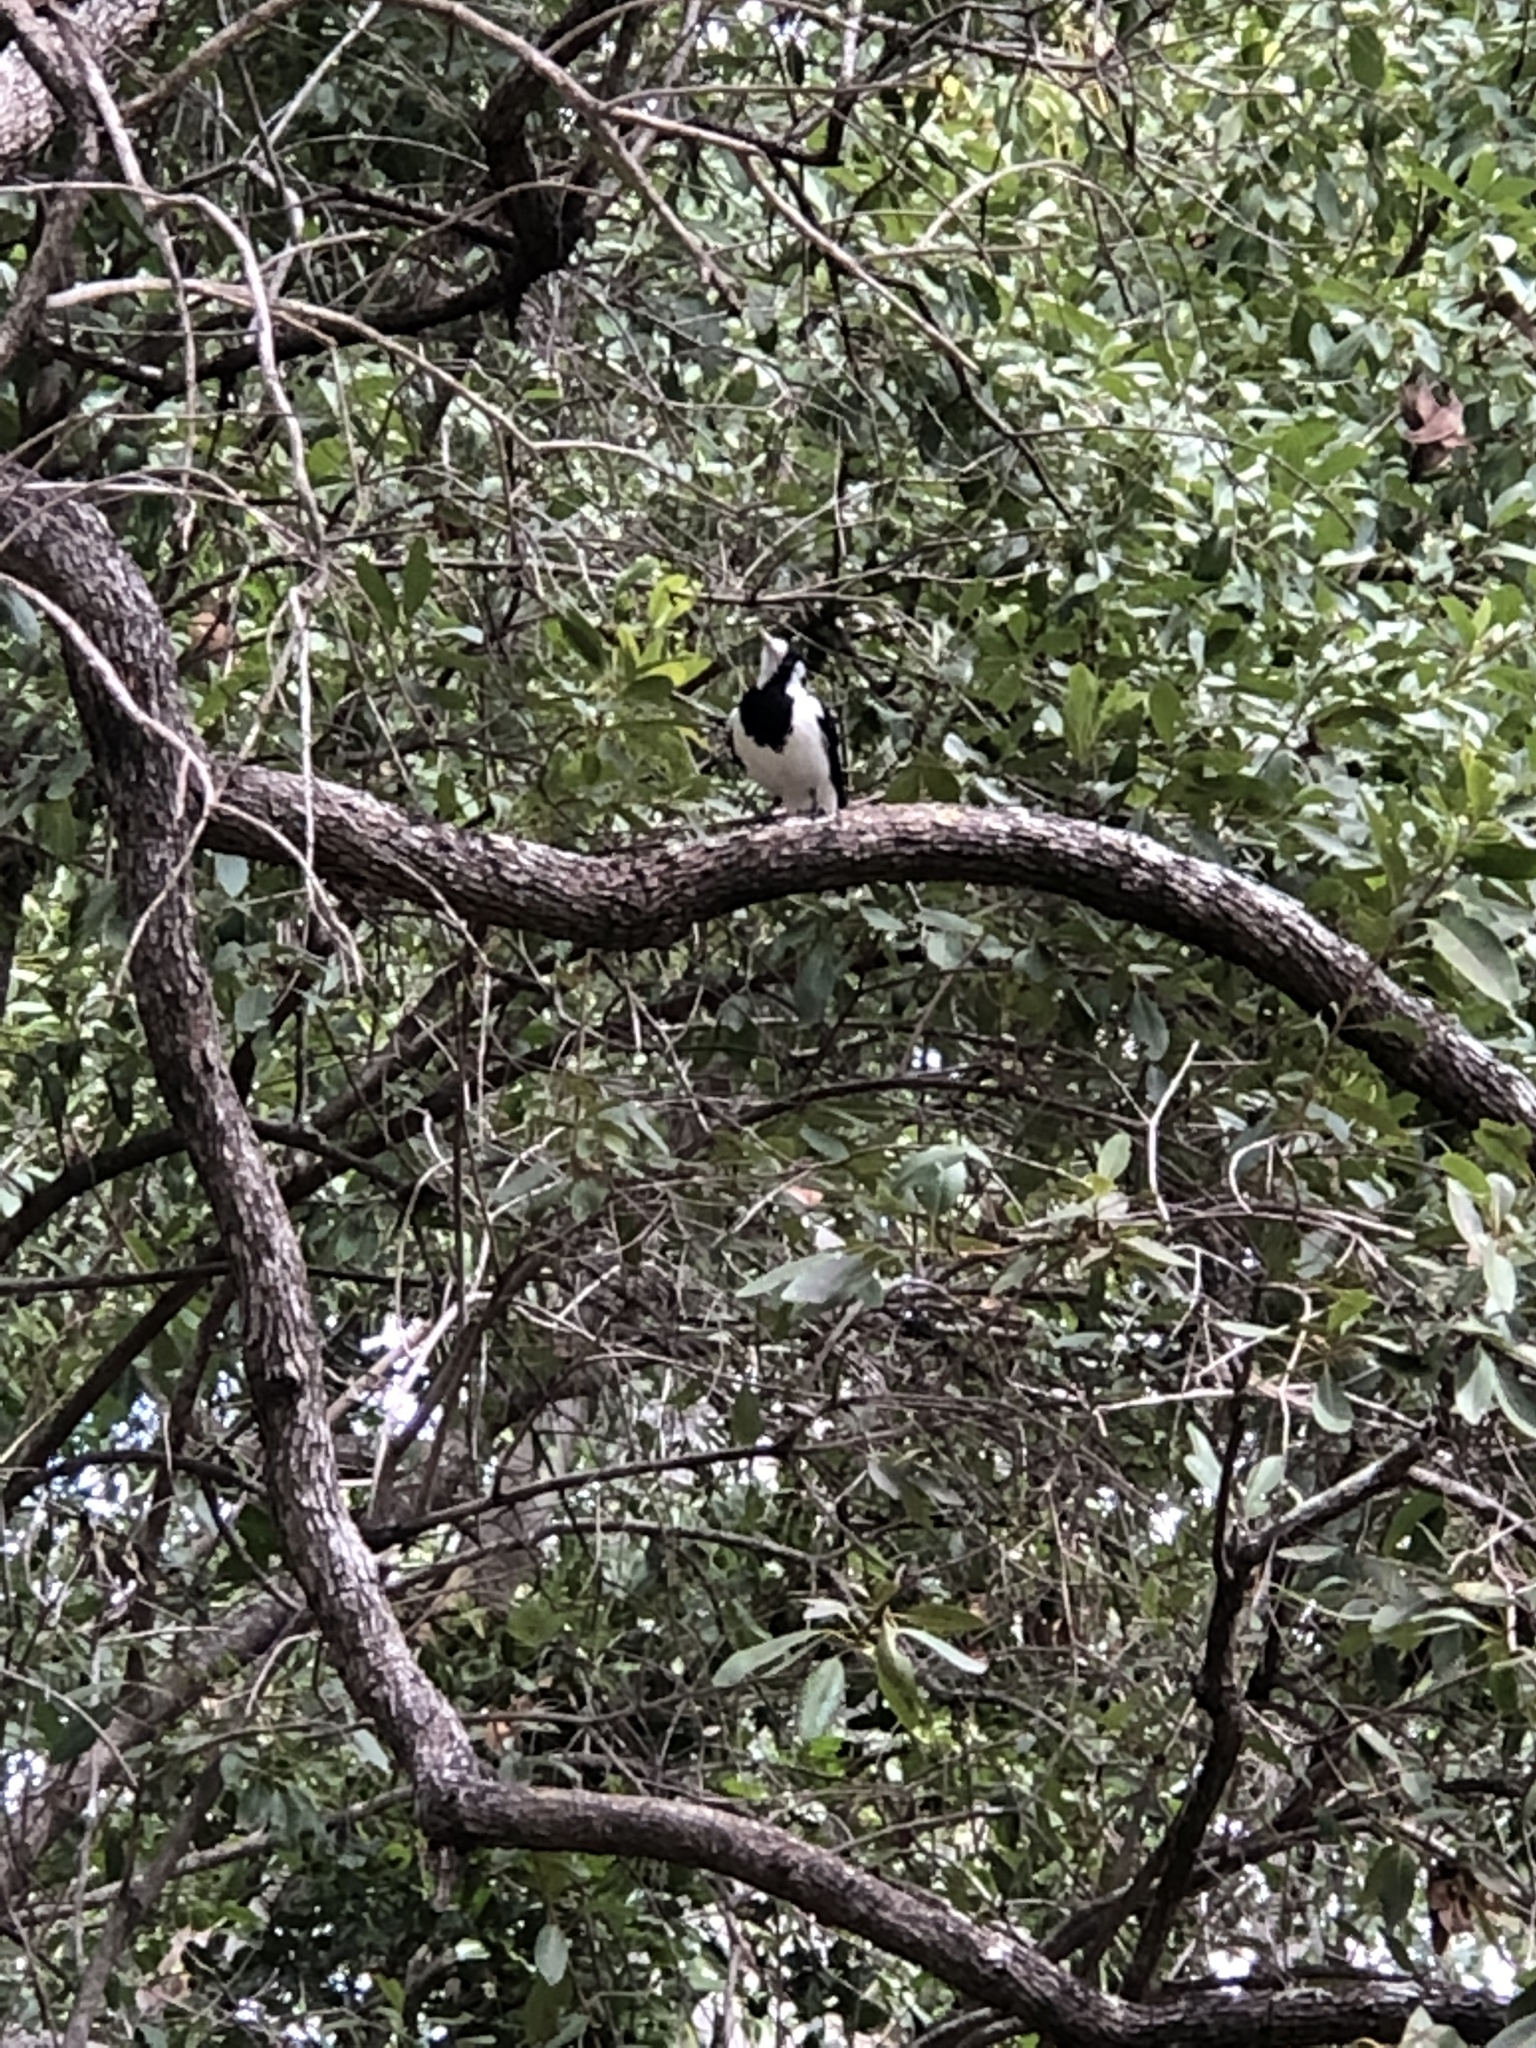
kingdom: Animalia
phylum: Chordata
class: Aves
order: Passeriformes
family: Monarchidae
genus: Grallina
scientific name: Grallina cyanoleuca
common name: Magpie-lark
